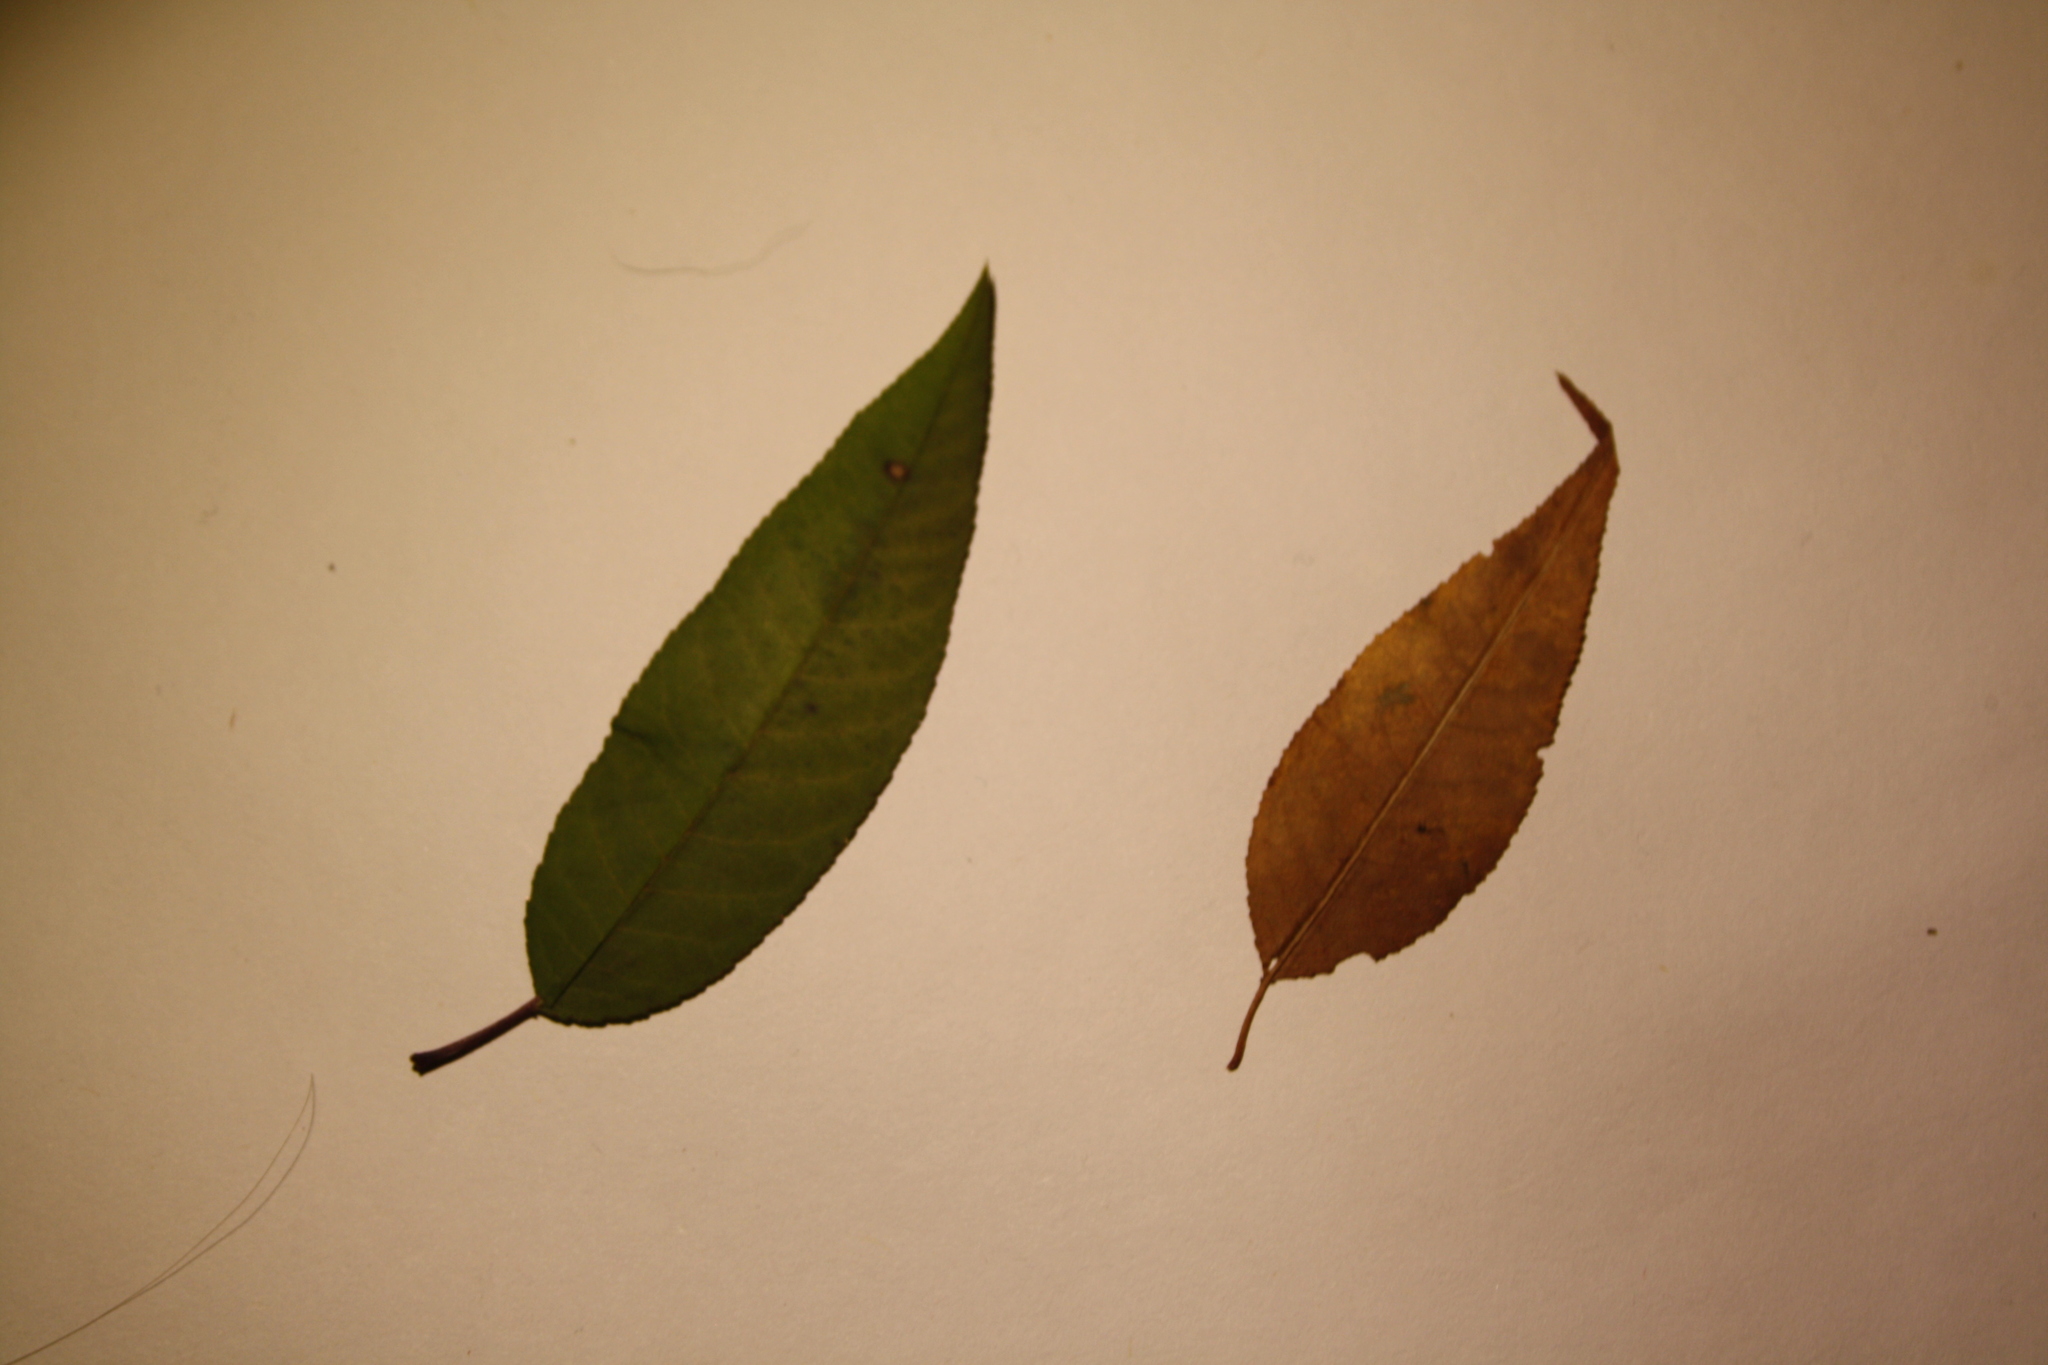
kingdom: Plantae
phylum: Tracheophyta
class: Magnoliopsida
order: Rosales
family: Rosaceae
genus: Prunus
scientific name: Prunus pensylvanica
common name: Pin cherry
